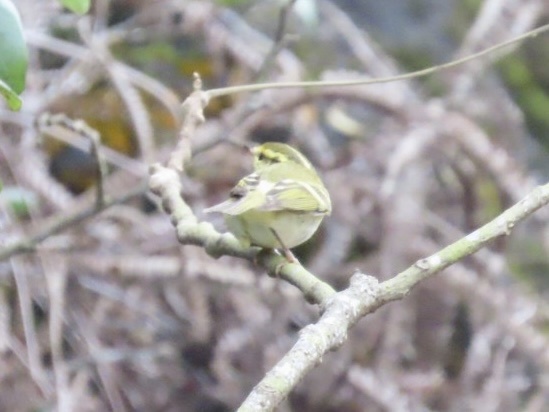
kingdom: Animalia
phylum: Chordata
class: Aves
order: Passeriformes
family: Phylloscopidae
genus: Phylloscopus
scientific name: Phylloscopus proregulus
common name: Pallas's leaf warbler
